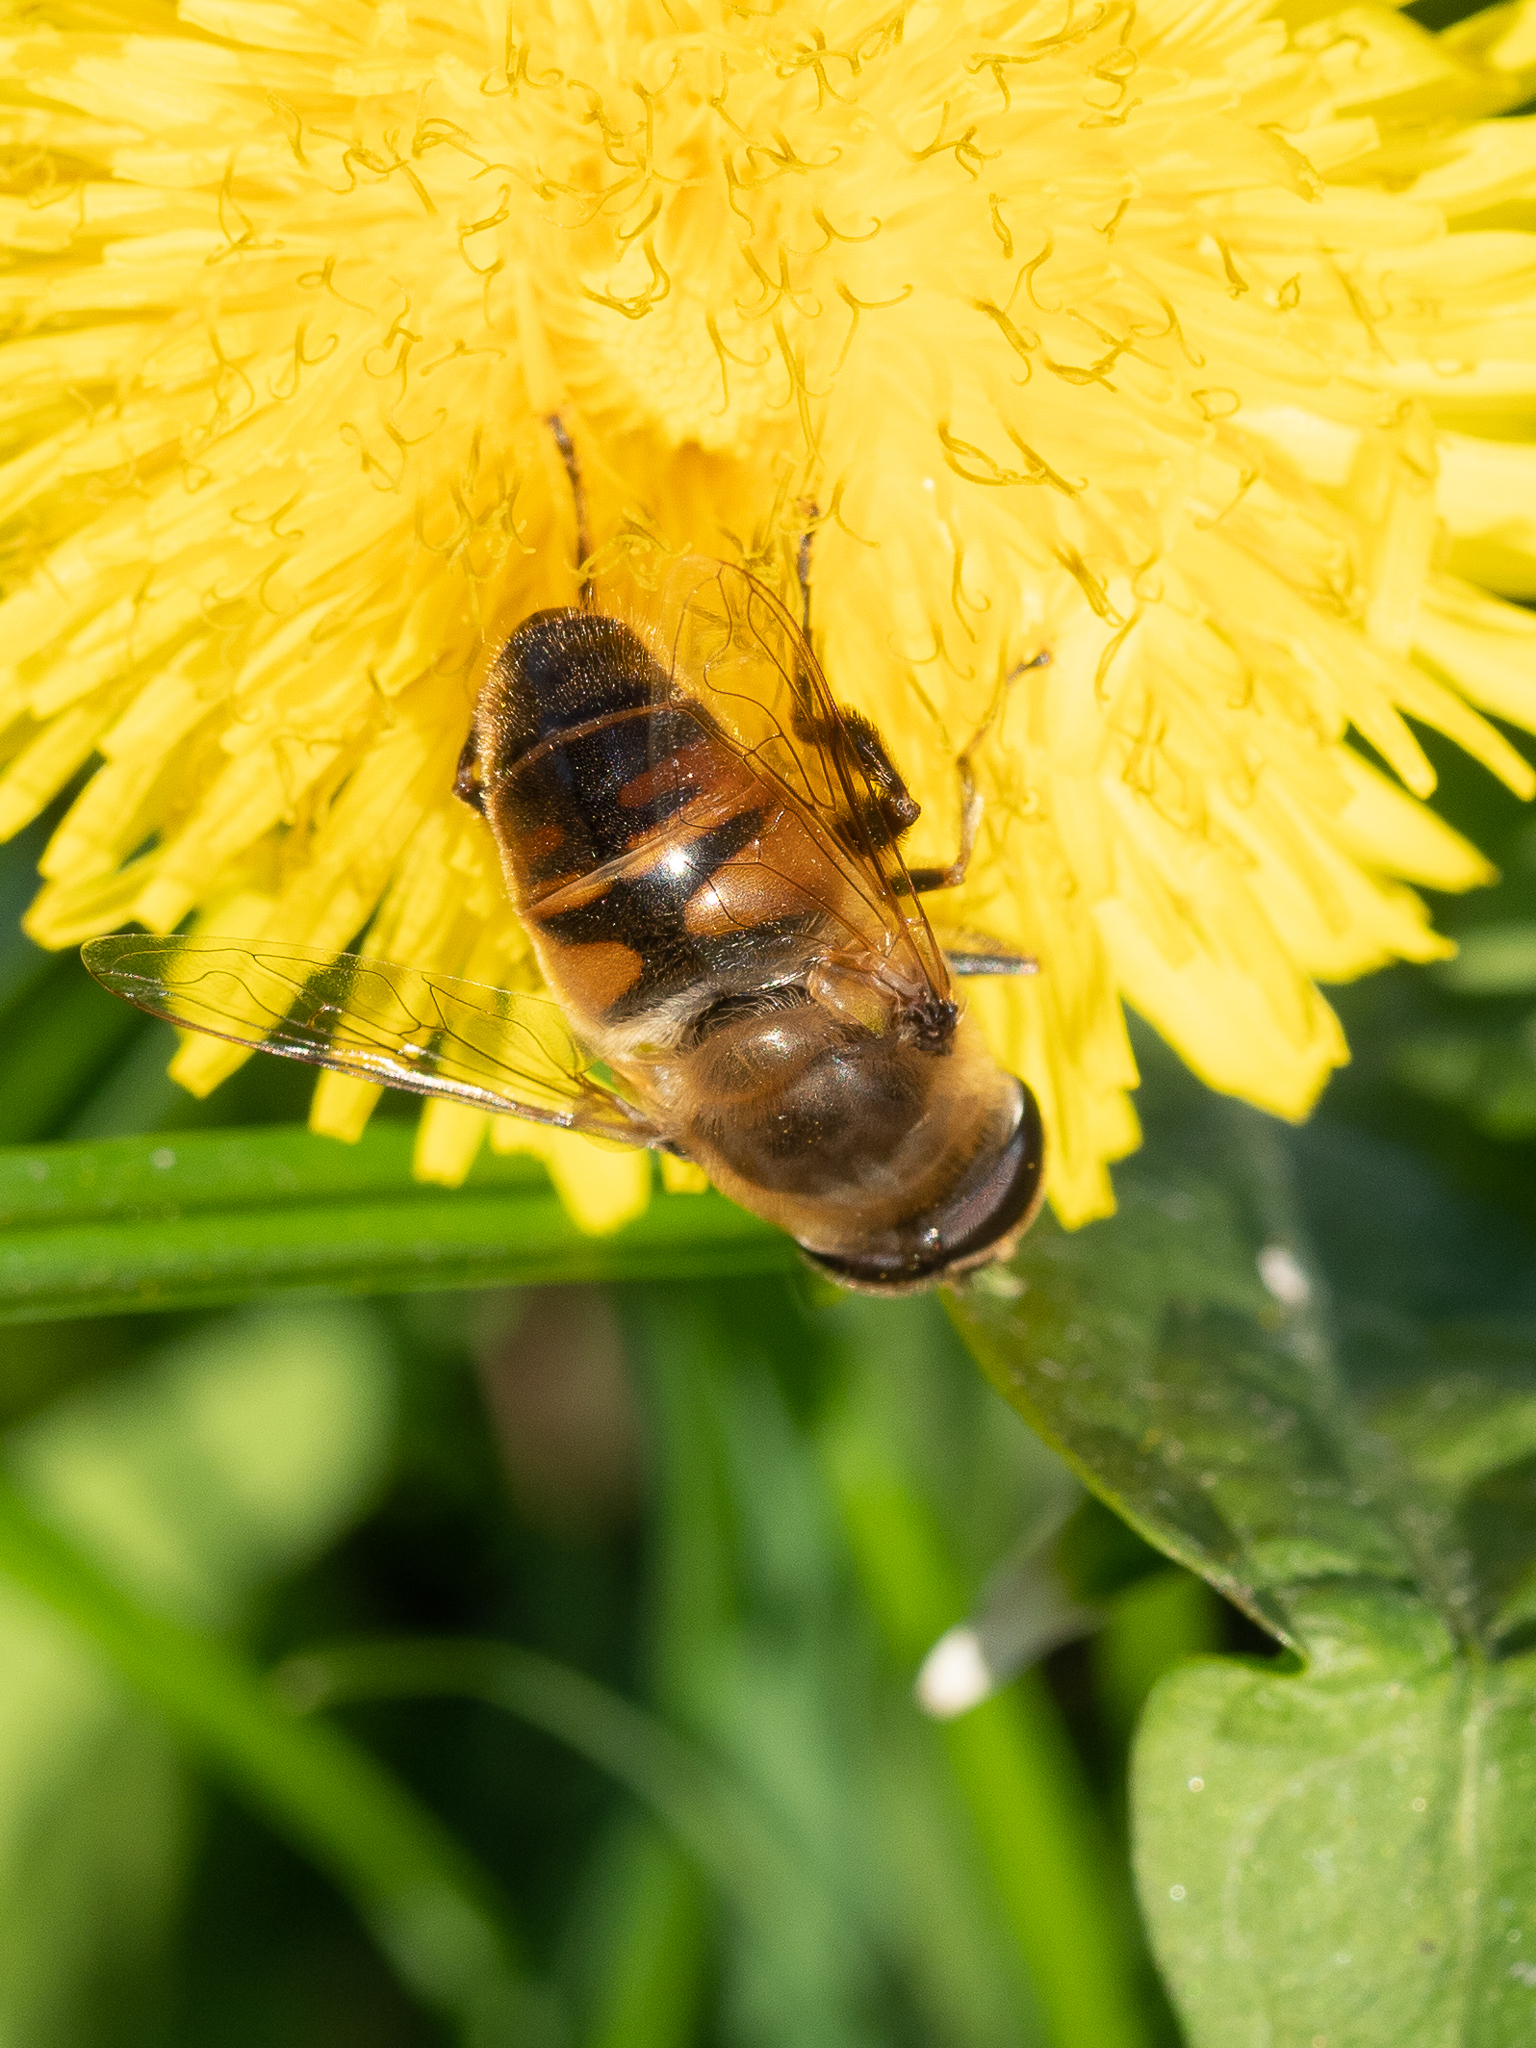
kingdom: Animalia
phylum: Arthropoda
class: Insecta
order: Diptera
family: Syrphidae
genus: Eristalis
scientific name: Eristalis tenax
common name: Drone fly
